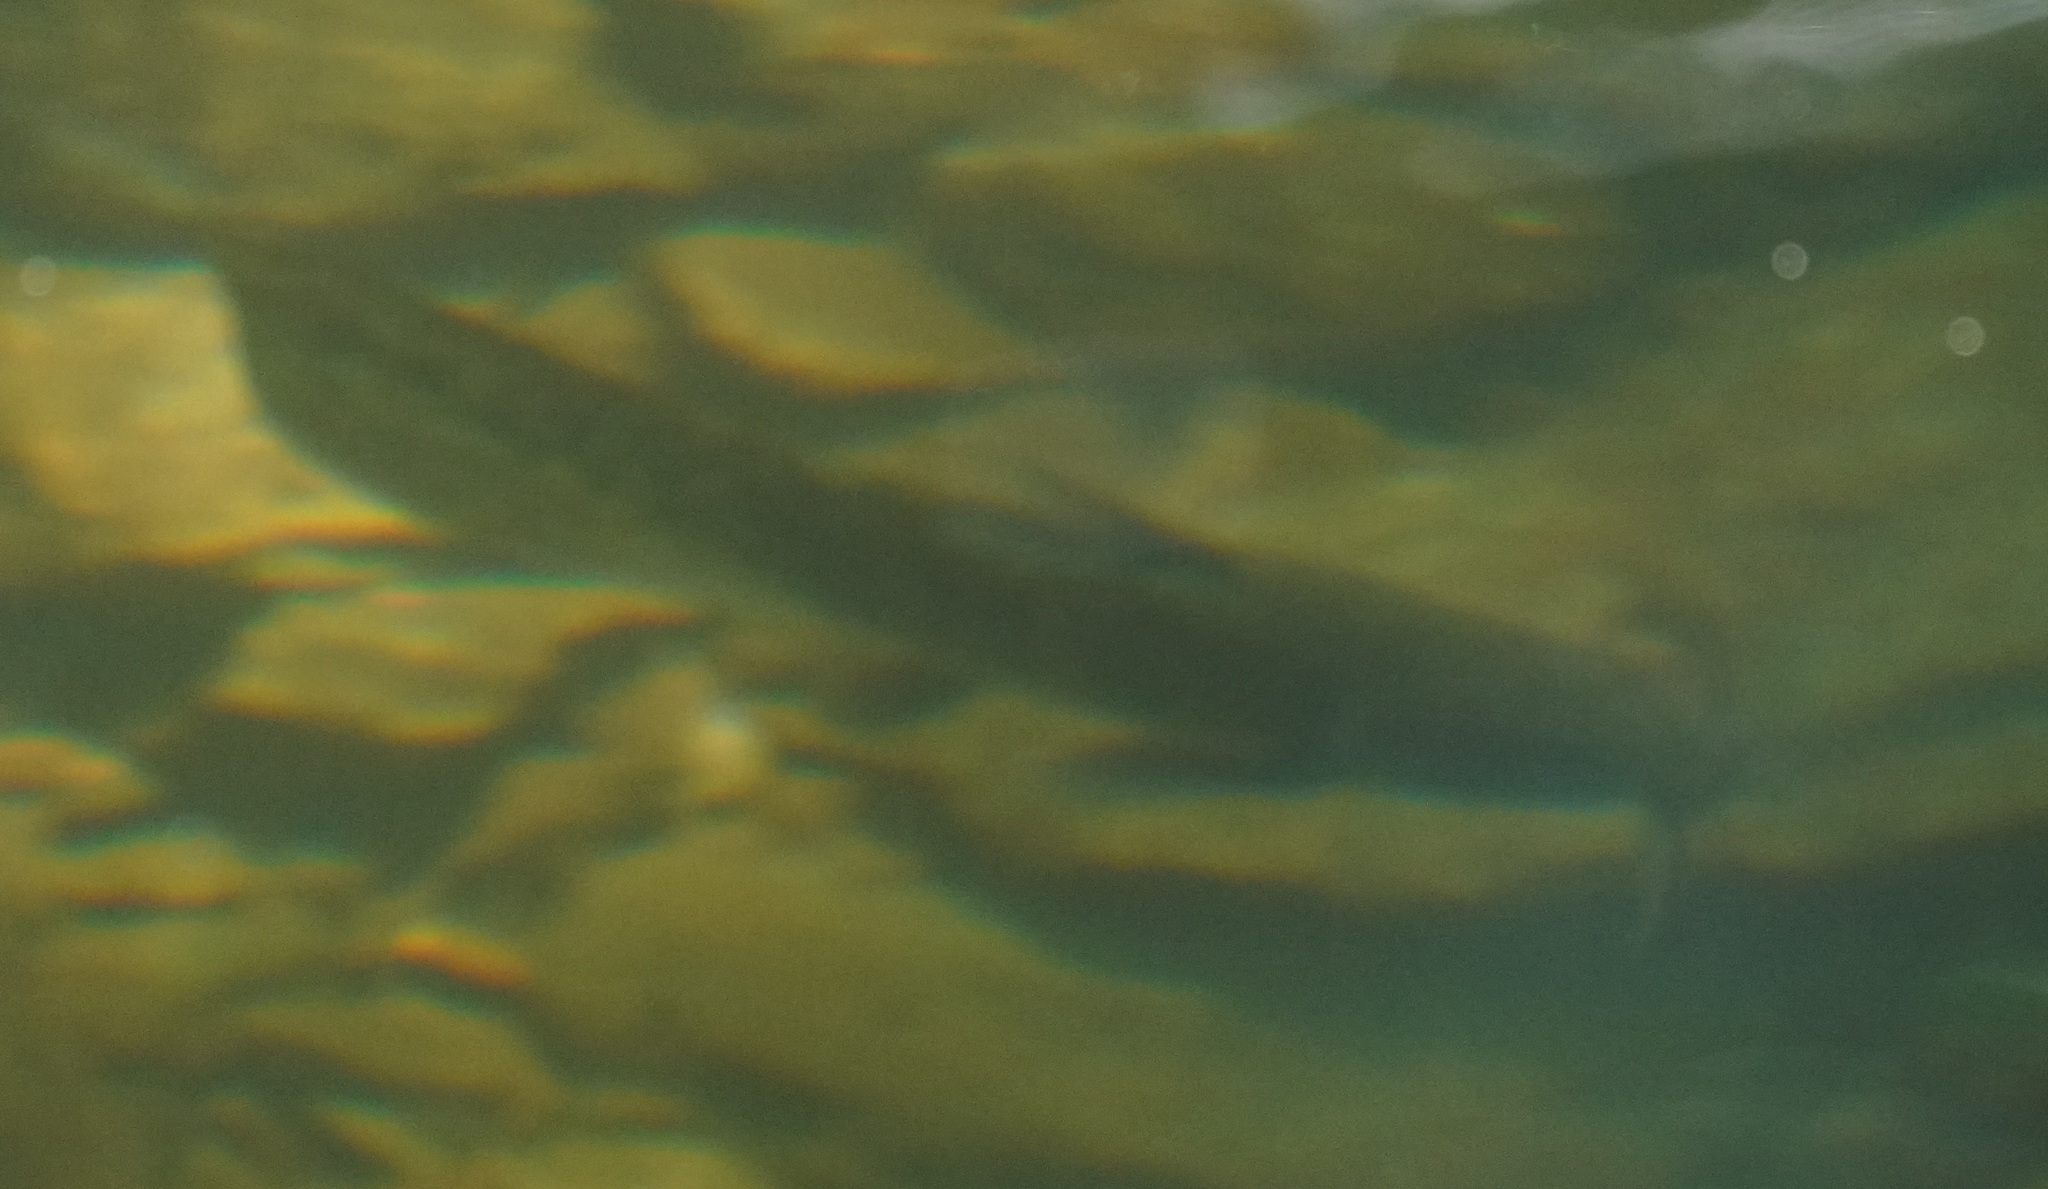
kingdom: Animalia
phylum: Chordata
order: Siluriformes
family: Plotosidae
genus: Tandanus
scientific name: Tandanus tropicanus
